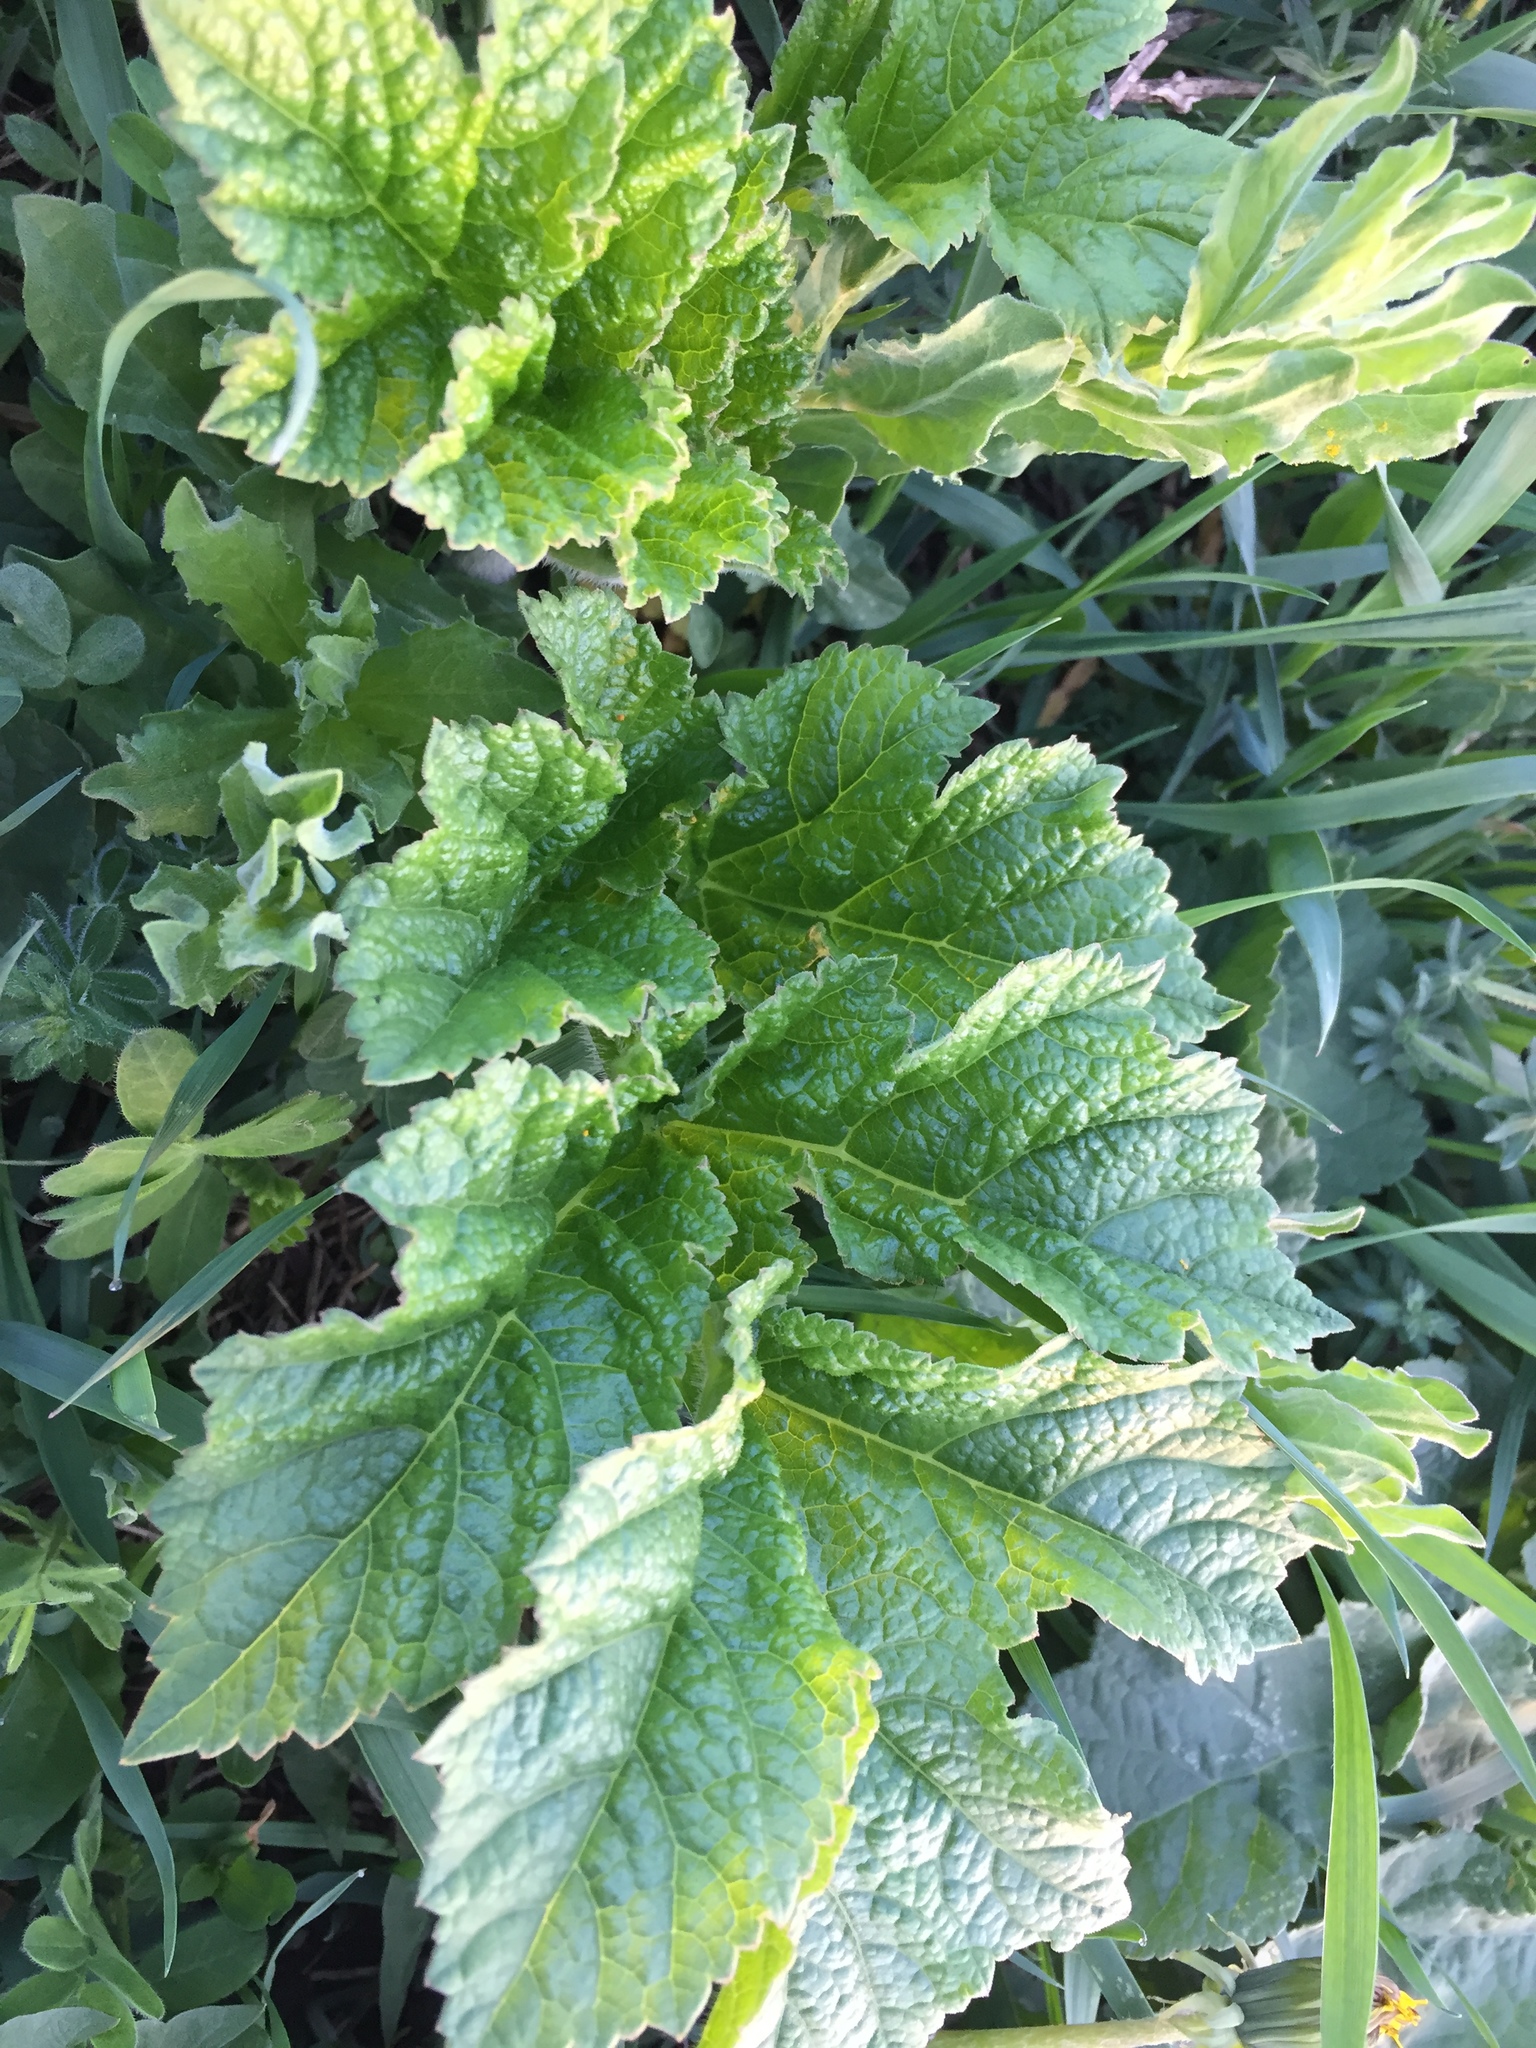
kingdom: Plantae
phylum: Tracheophyta
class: Magnoliopsida
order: Apiales
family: Apiaceae
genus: Heracleum
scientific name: Heracleum sphondylium
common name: Hogweed
